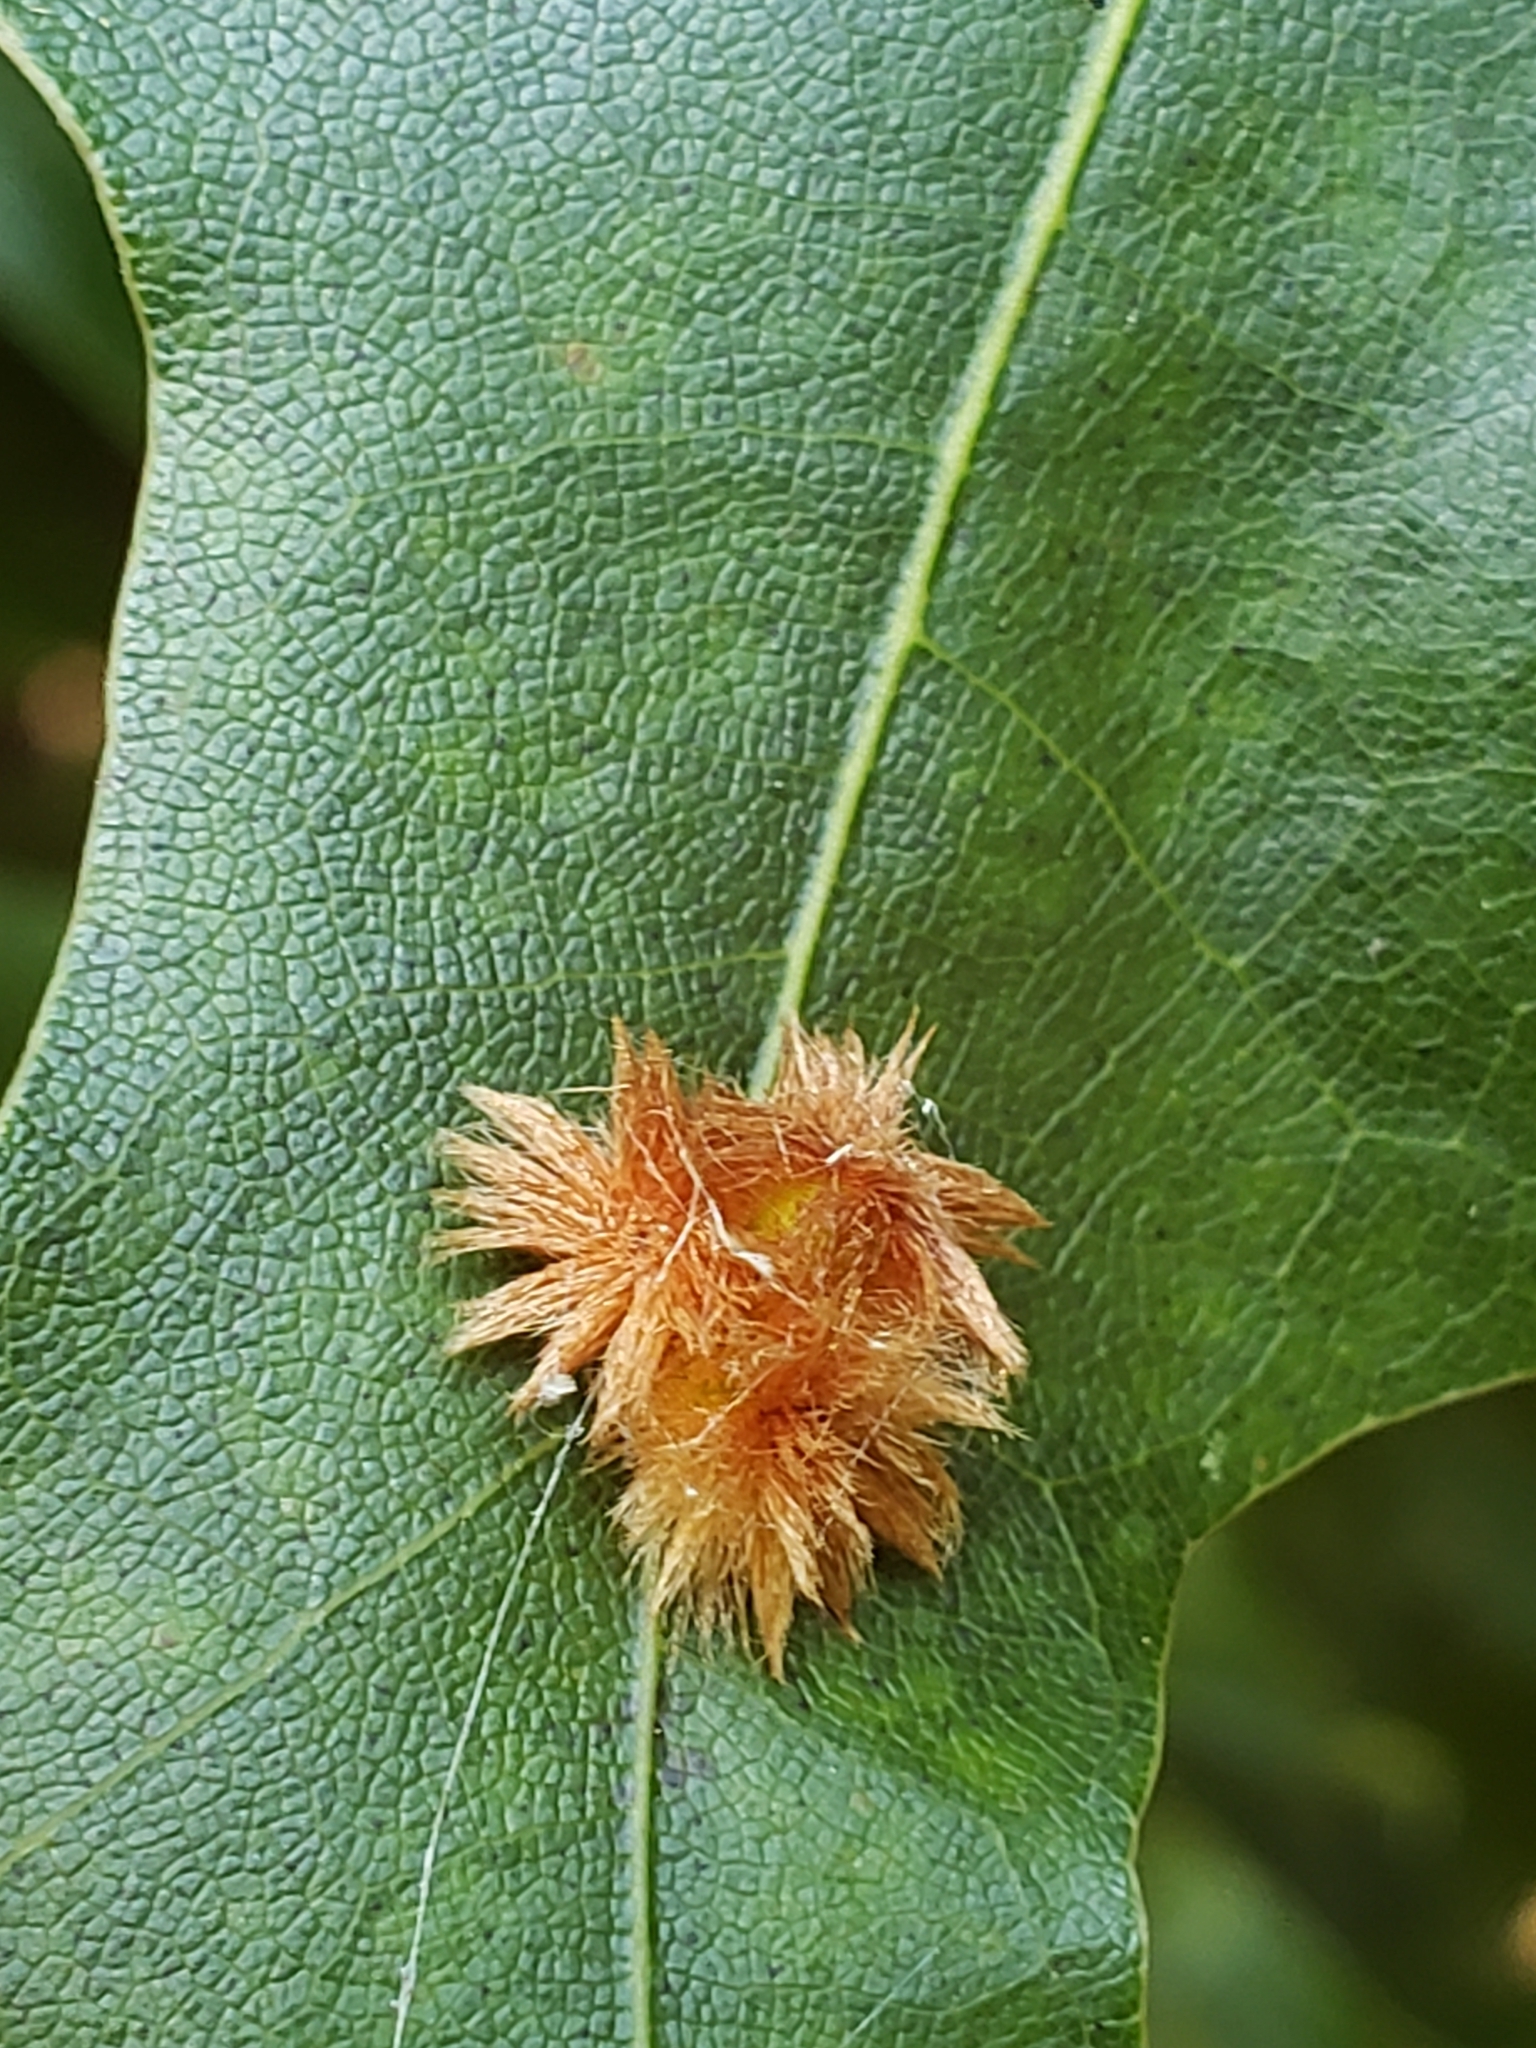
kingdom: Animalia
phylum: Arthropoda
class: Insecta
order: Hymenoptera
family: Cynipidae
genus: Callirhytis
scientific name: Callirhytis
